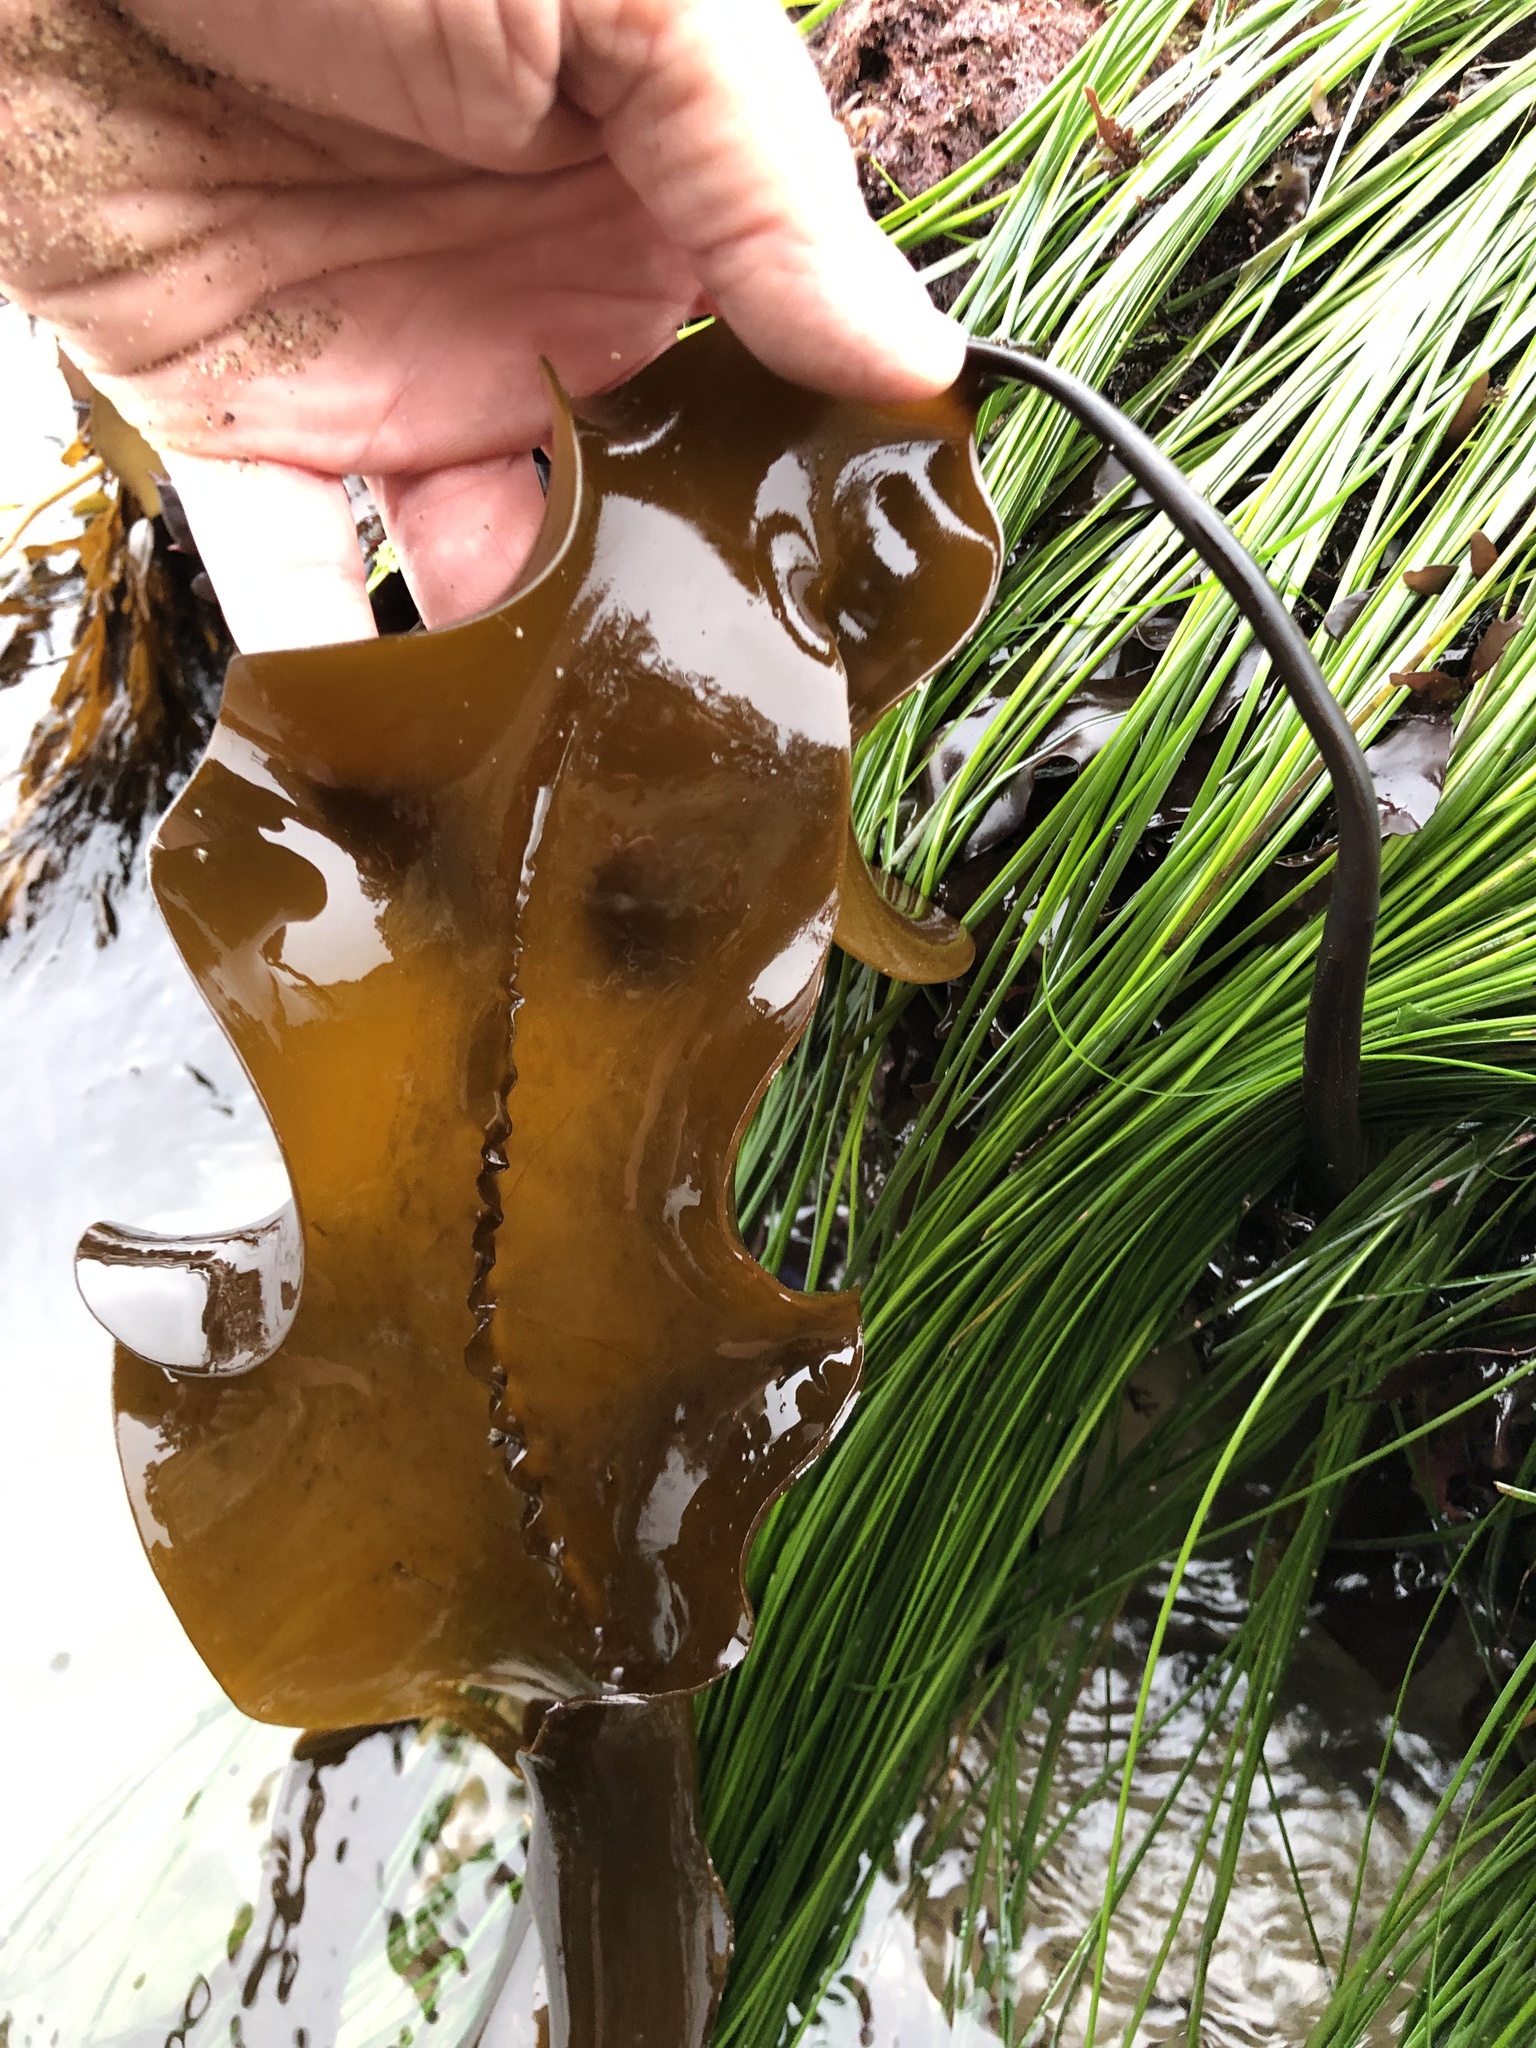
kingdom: Chromista
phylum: Ochrophyta
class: Phaeophyceae
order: Laminariales
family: Laminariaceae
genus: Laminaria
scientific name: Laminaria setchellii
